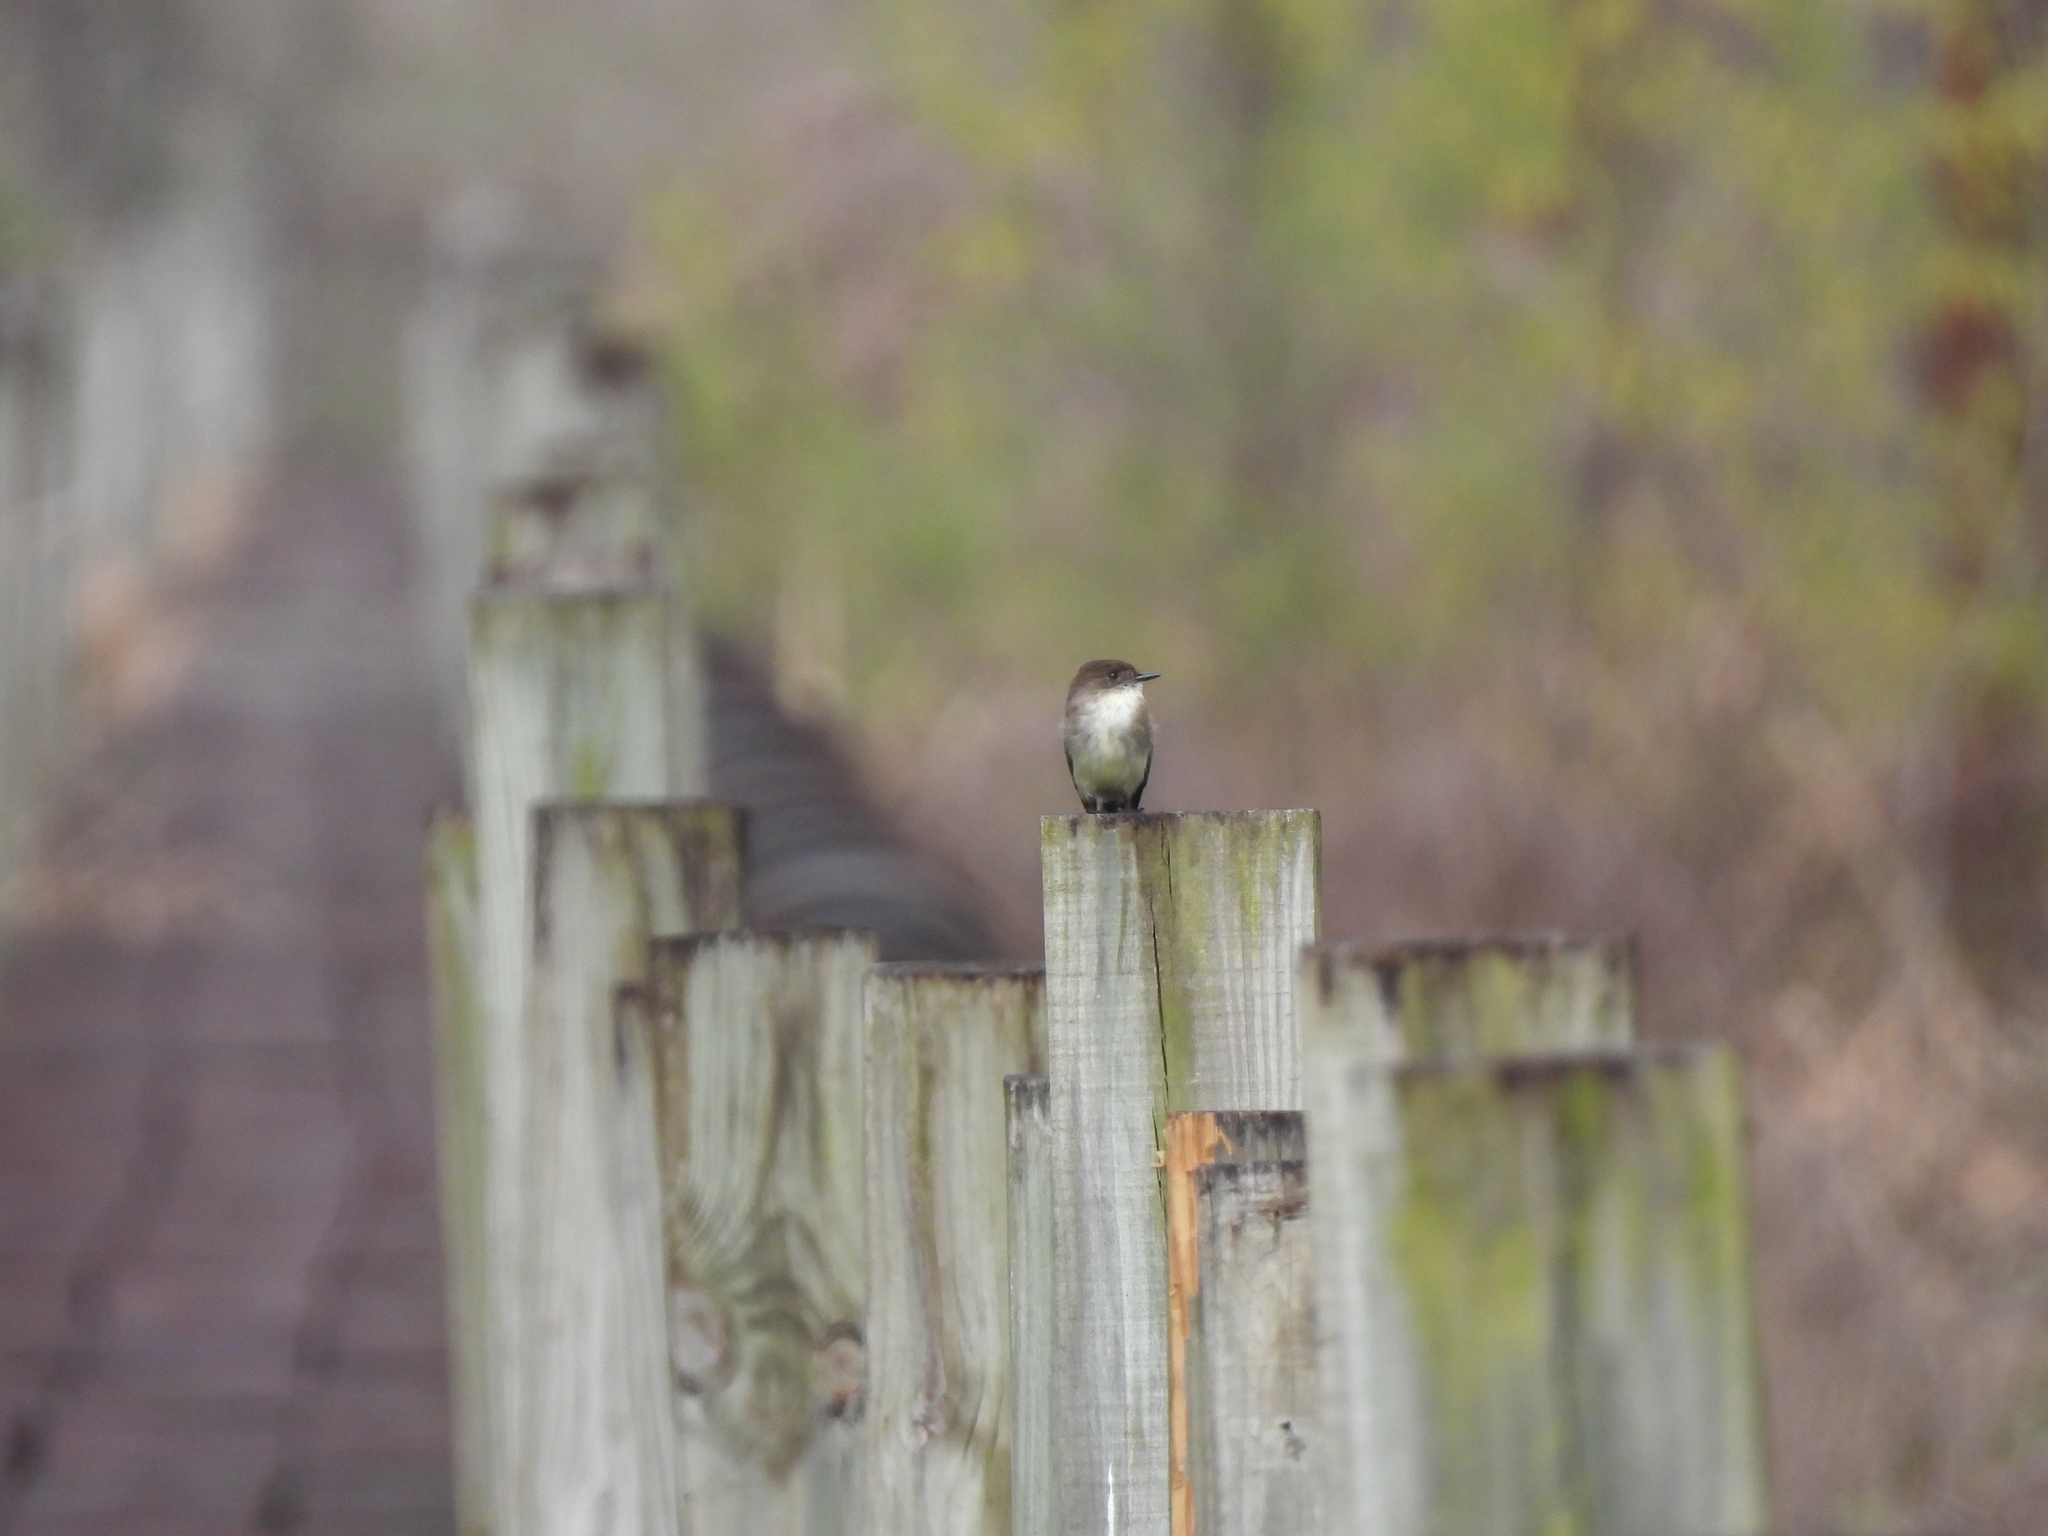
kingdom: Animalia
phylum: Chordata
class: Aves
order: Passeriformes
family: Tyrannidae
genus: Sayornis
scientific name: Sayornis phoebe
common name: Eastern phoebe
